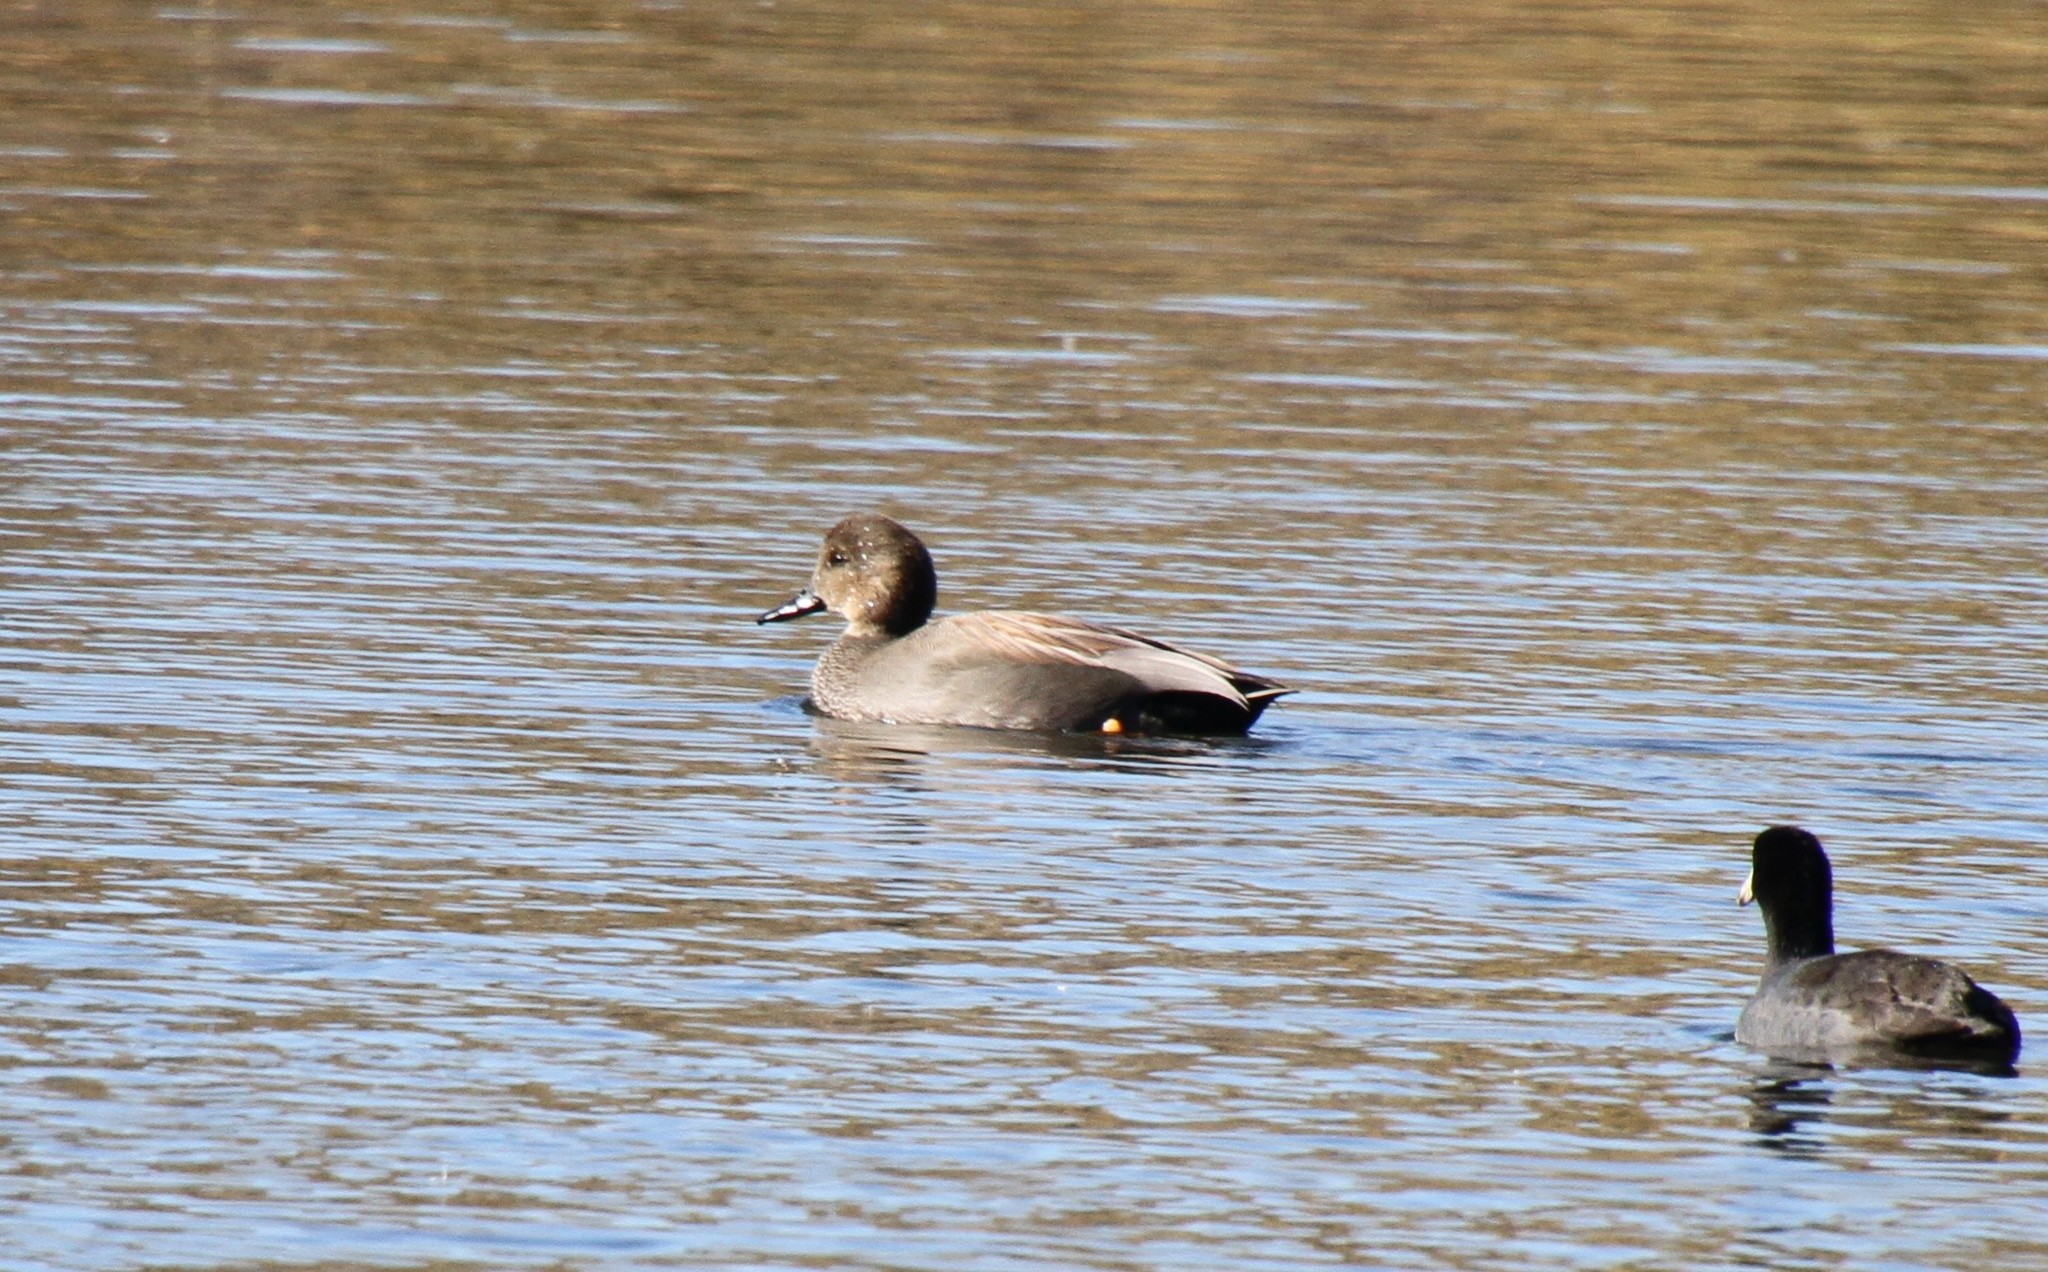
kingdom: Animalia
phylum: Chordata
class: Aves
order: Anseriformes
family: Anatidae
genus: Mareca
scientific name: Mareca strepera
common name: Gadwall
